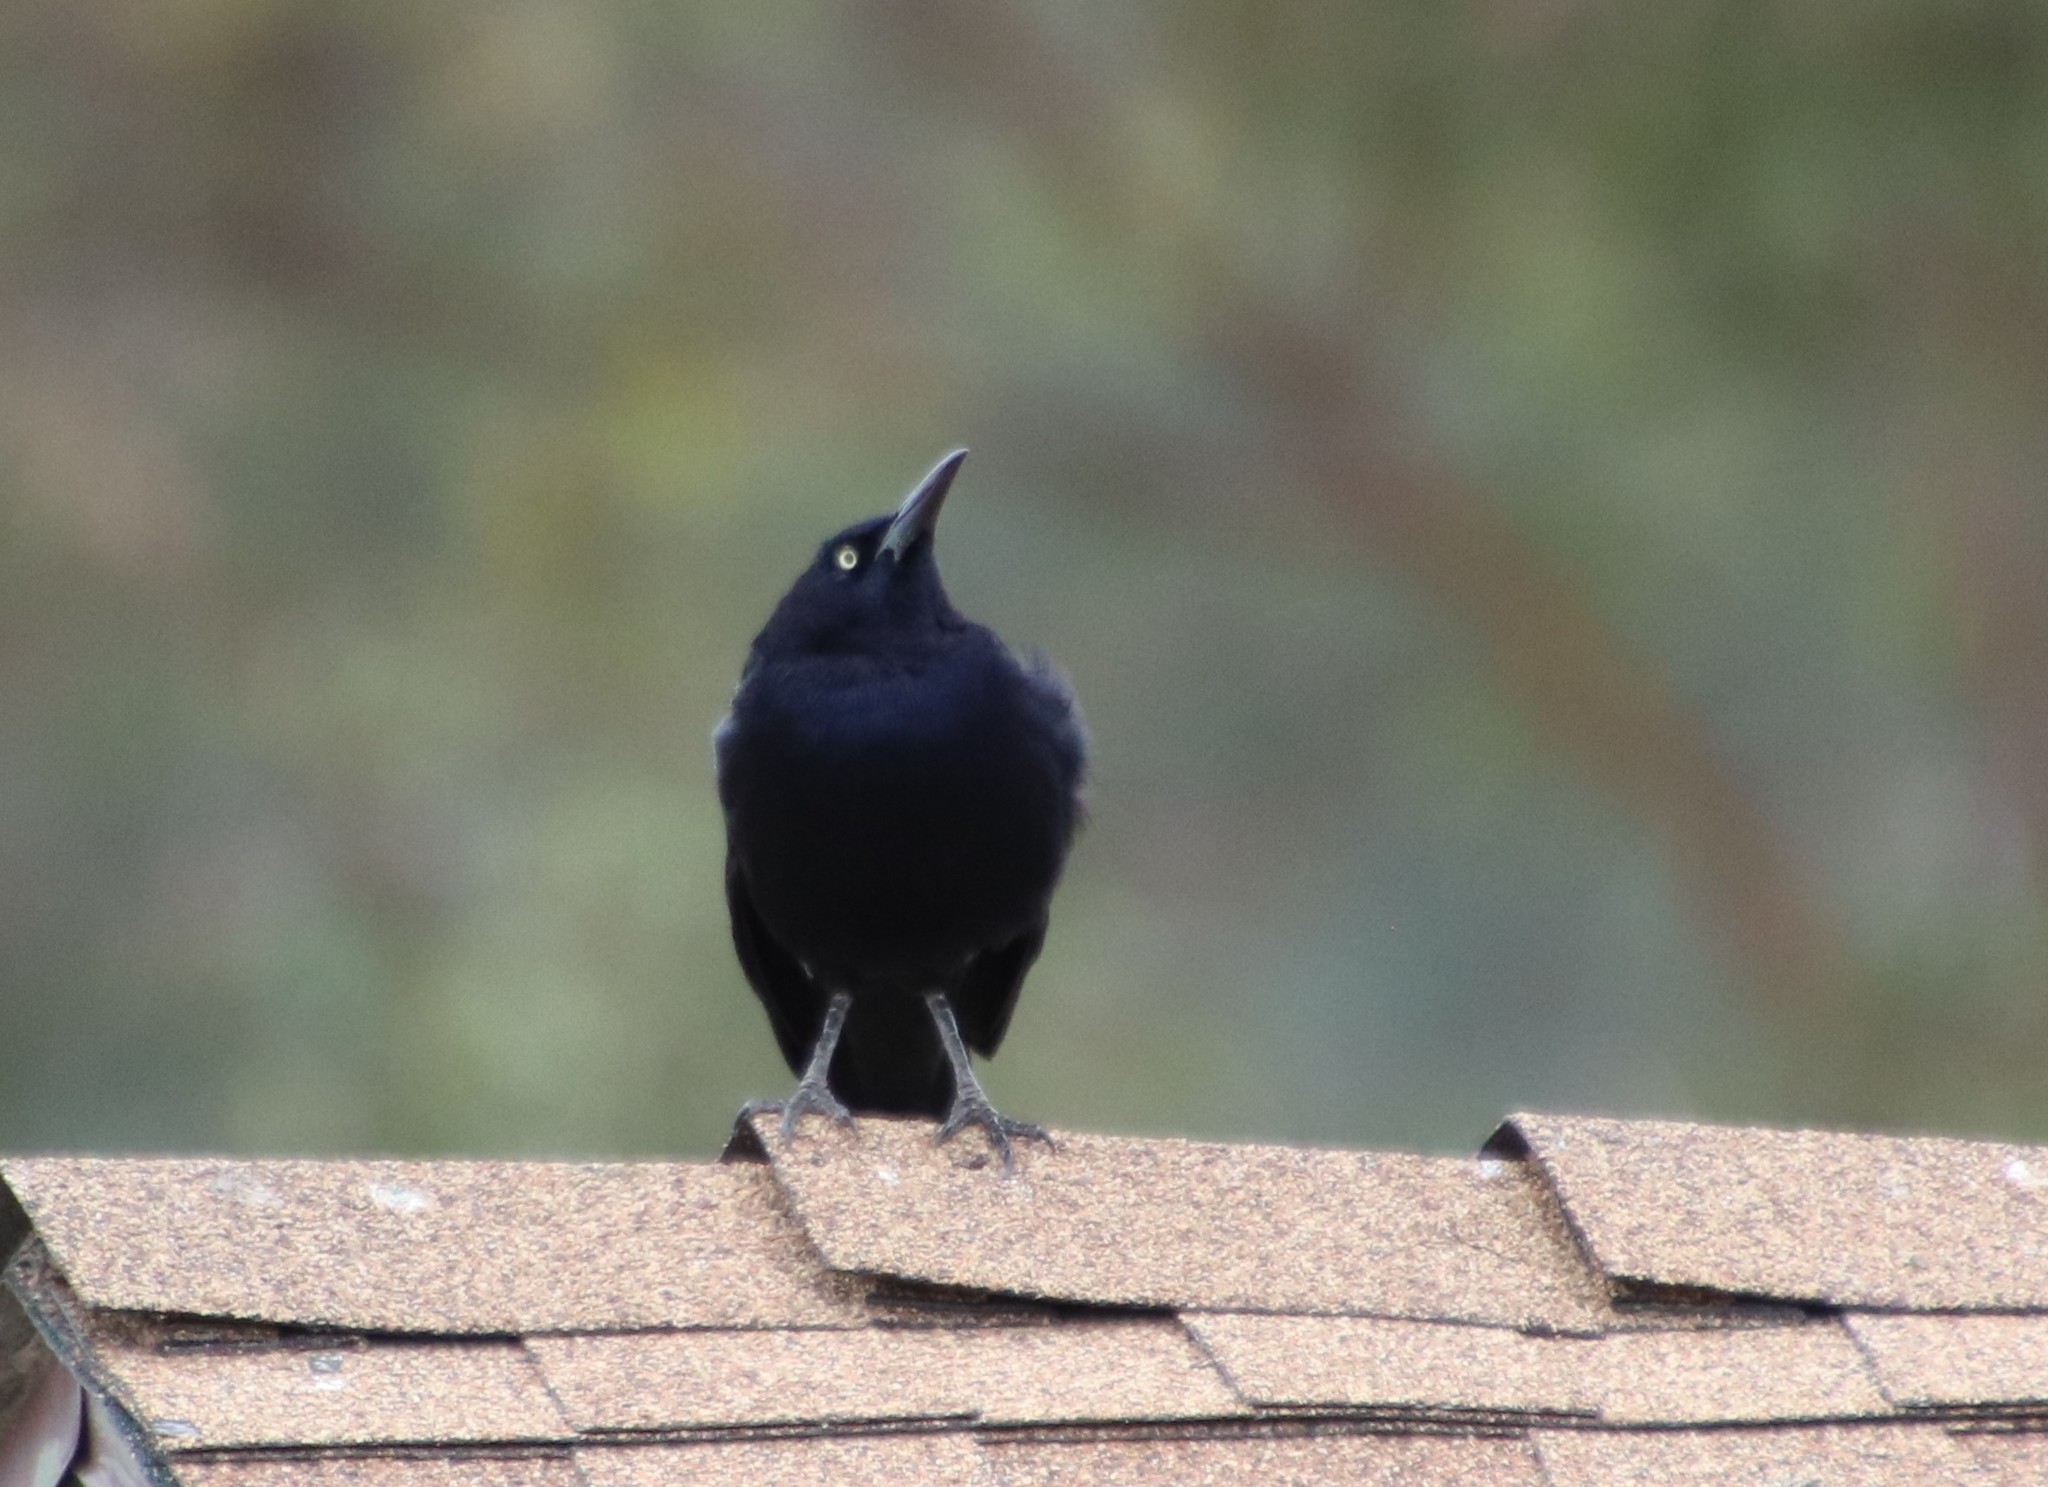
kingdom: Animalia
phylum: Chordata
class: Aves
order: Passeriformes
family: Icteridae
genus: Quiscalus
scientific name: Quiscalus mexicanus
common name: Great-tailed grackle
